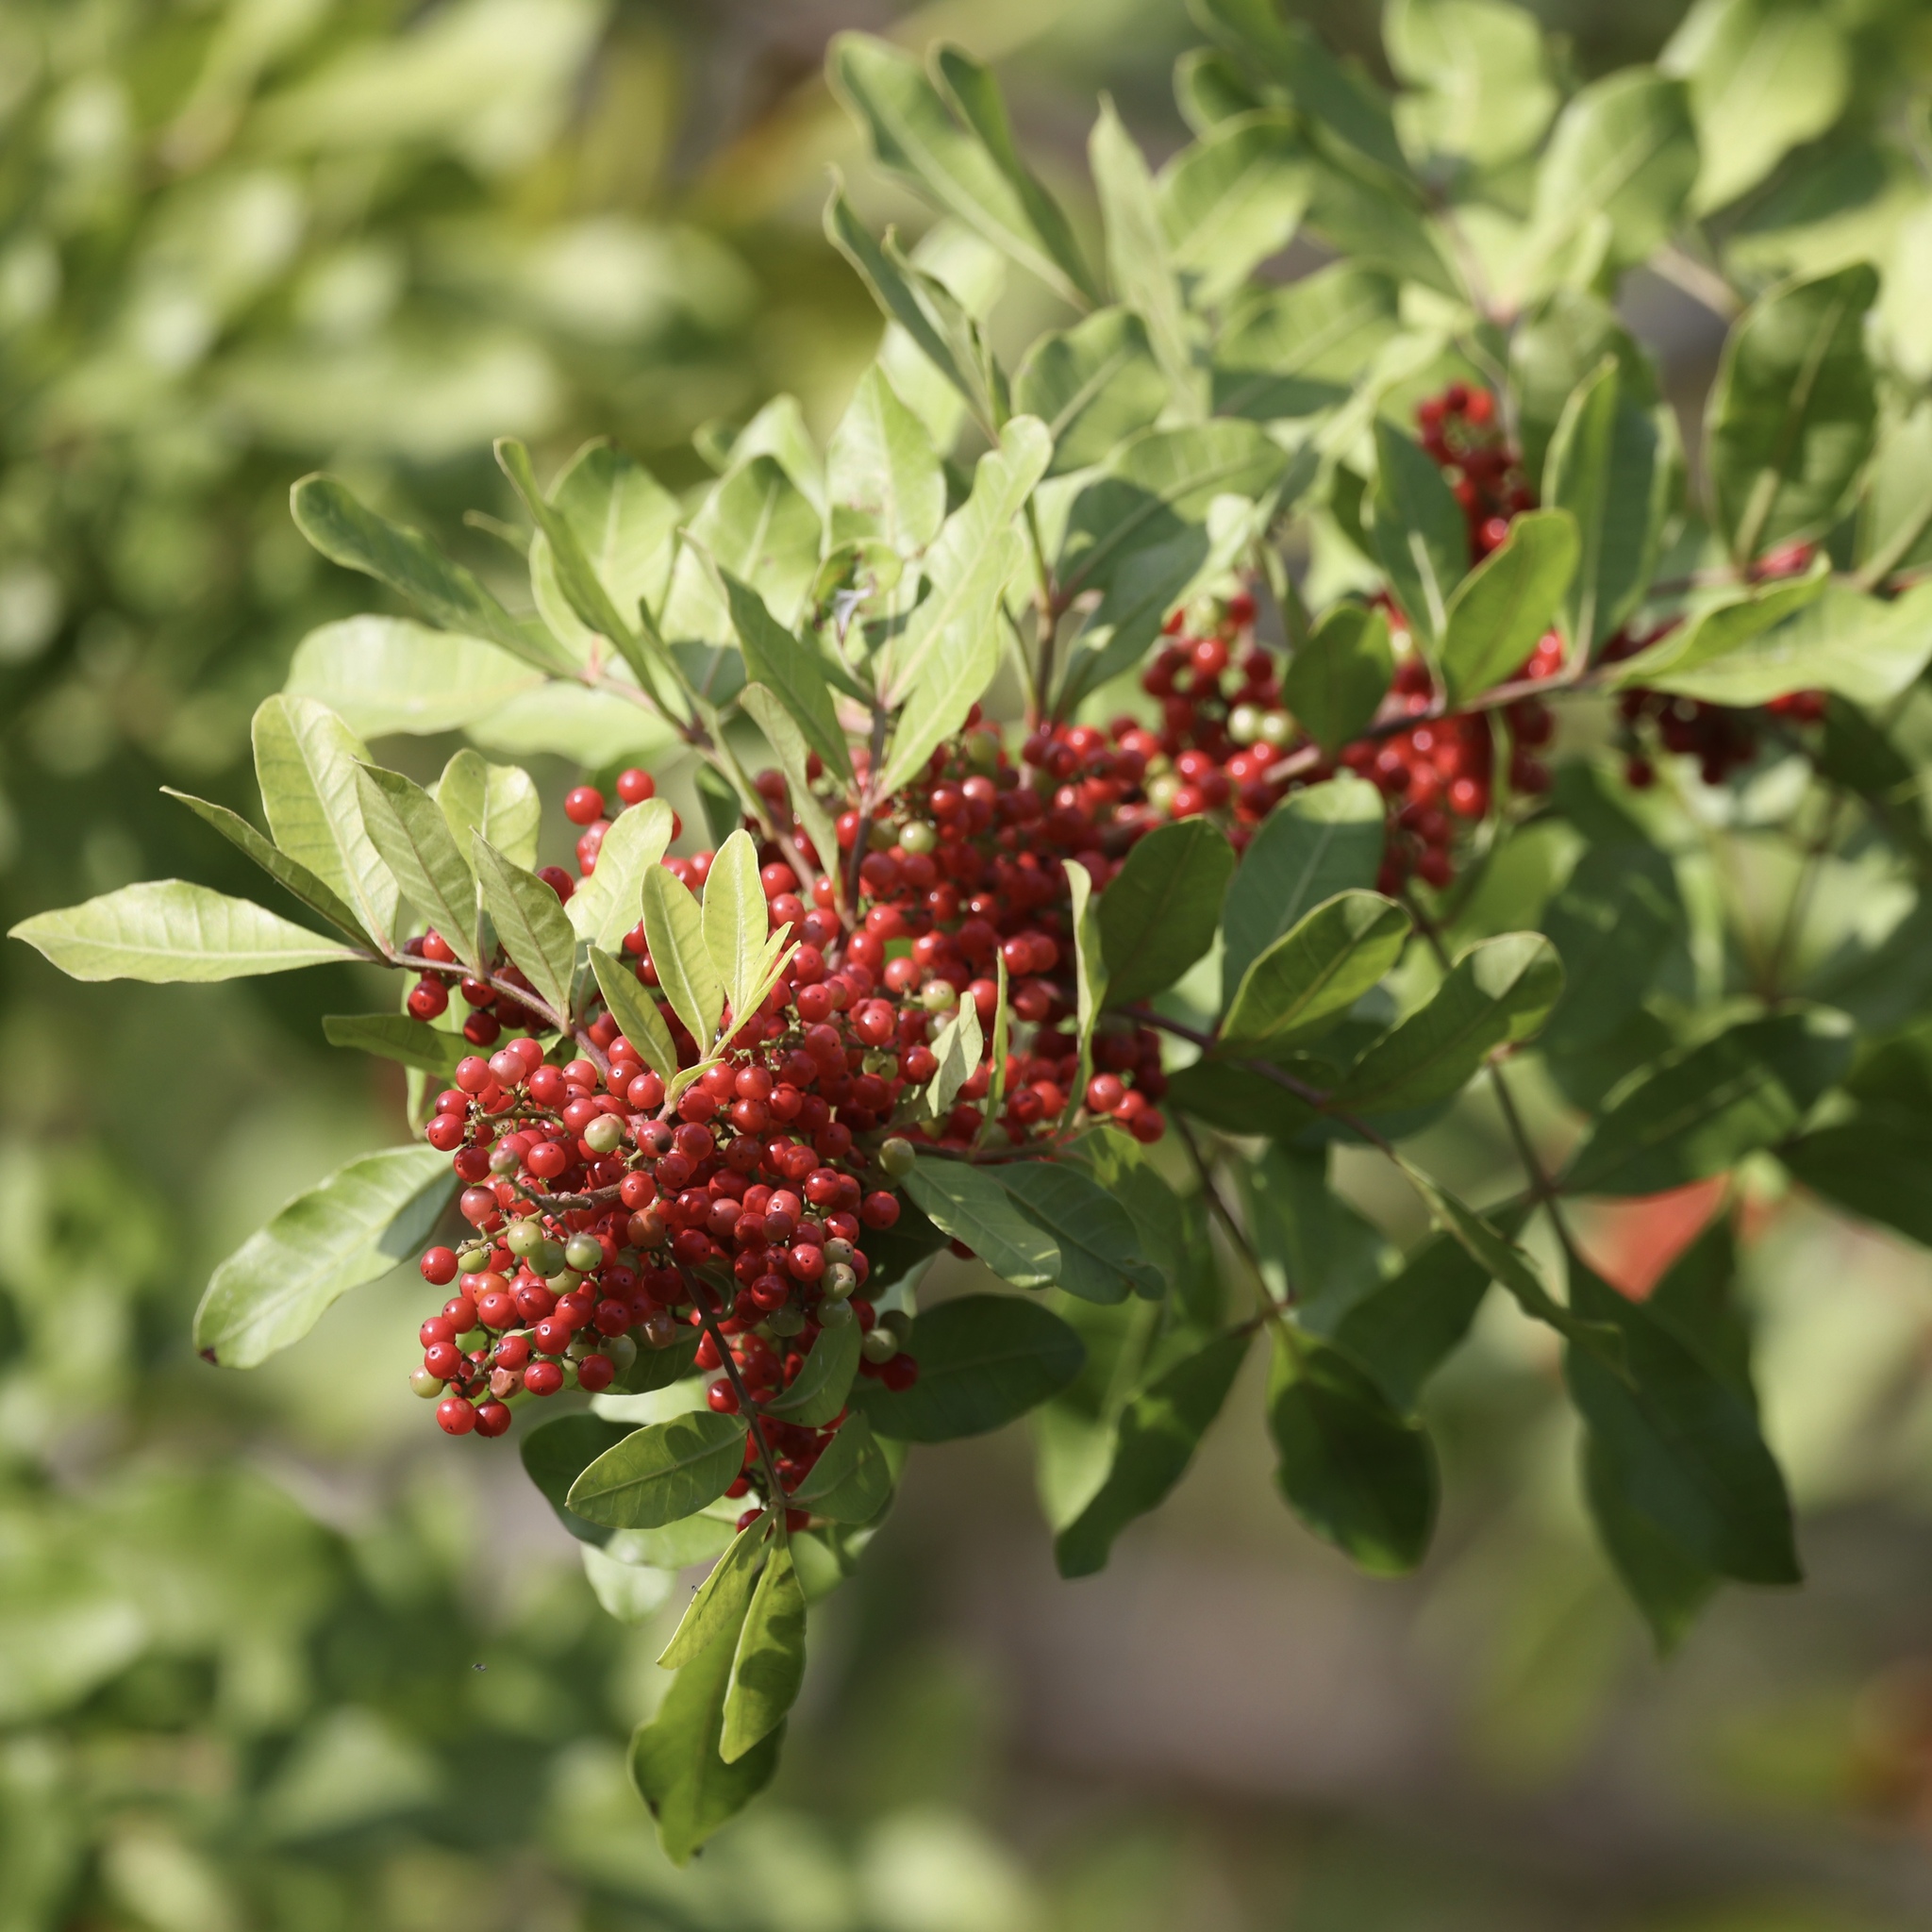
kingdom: Plantae
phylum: Tracheophyta
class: Magnoliopsida
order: Sapindales
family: Anacardiaceae
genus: Schinus
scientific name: Schinus terebinthifolia
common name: Brazilian peppertree
